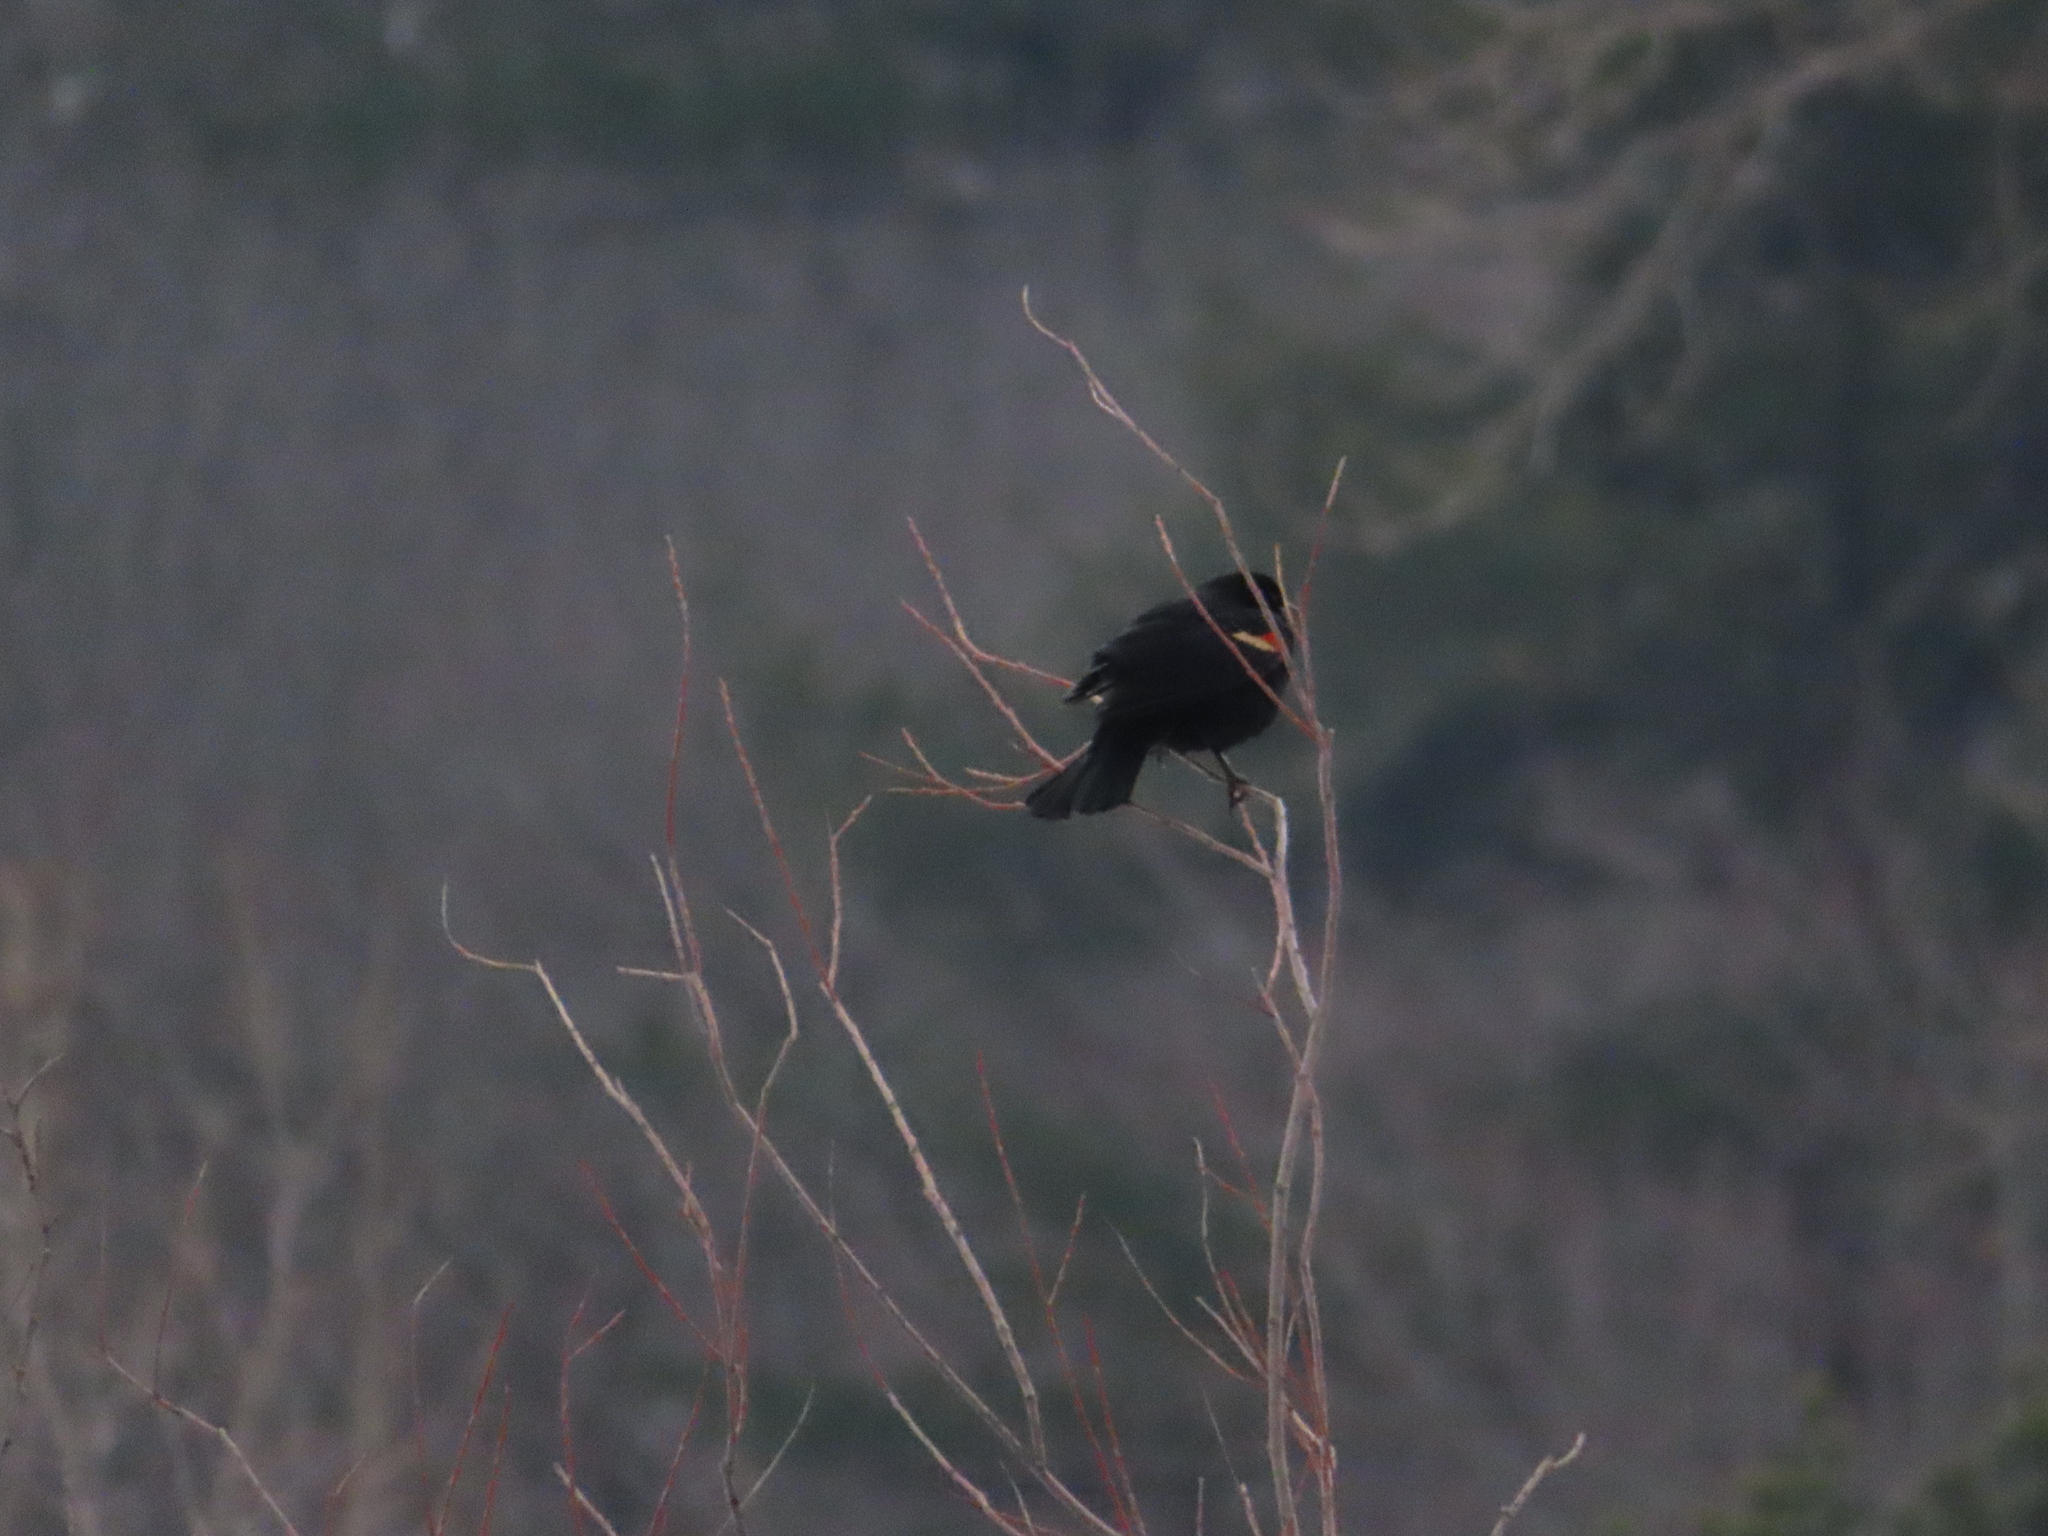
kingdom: Animalia
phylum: Chordata
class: Aves
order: Passeriformes
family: Icteridae
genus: Agelaius
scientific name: Agelaius phoeniceus
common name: Red-winged blackbird
